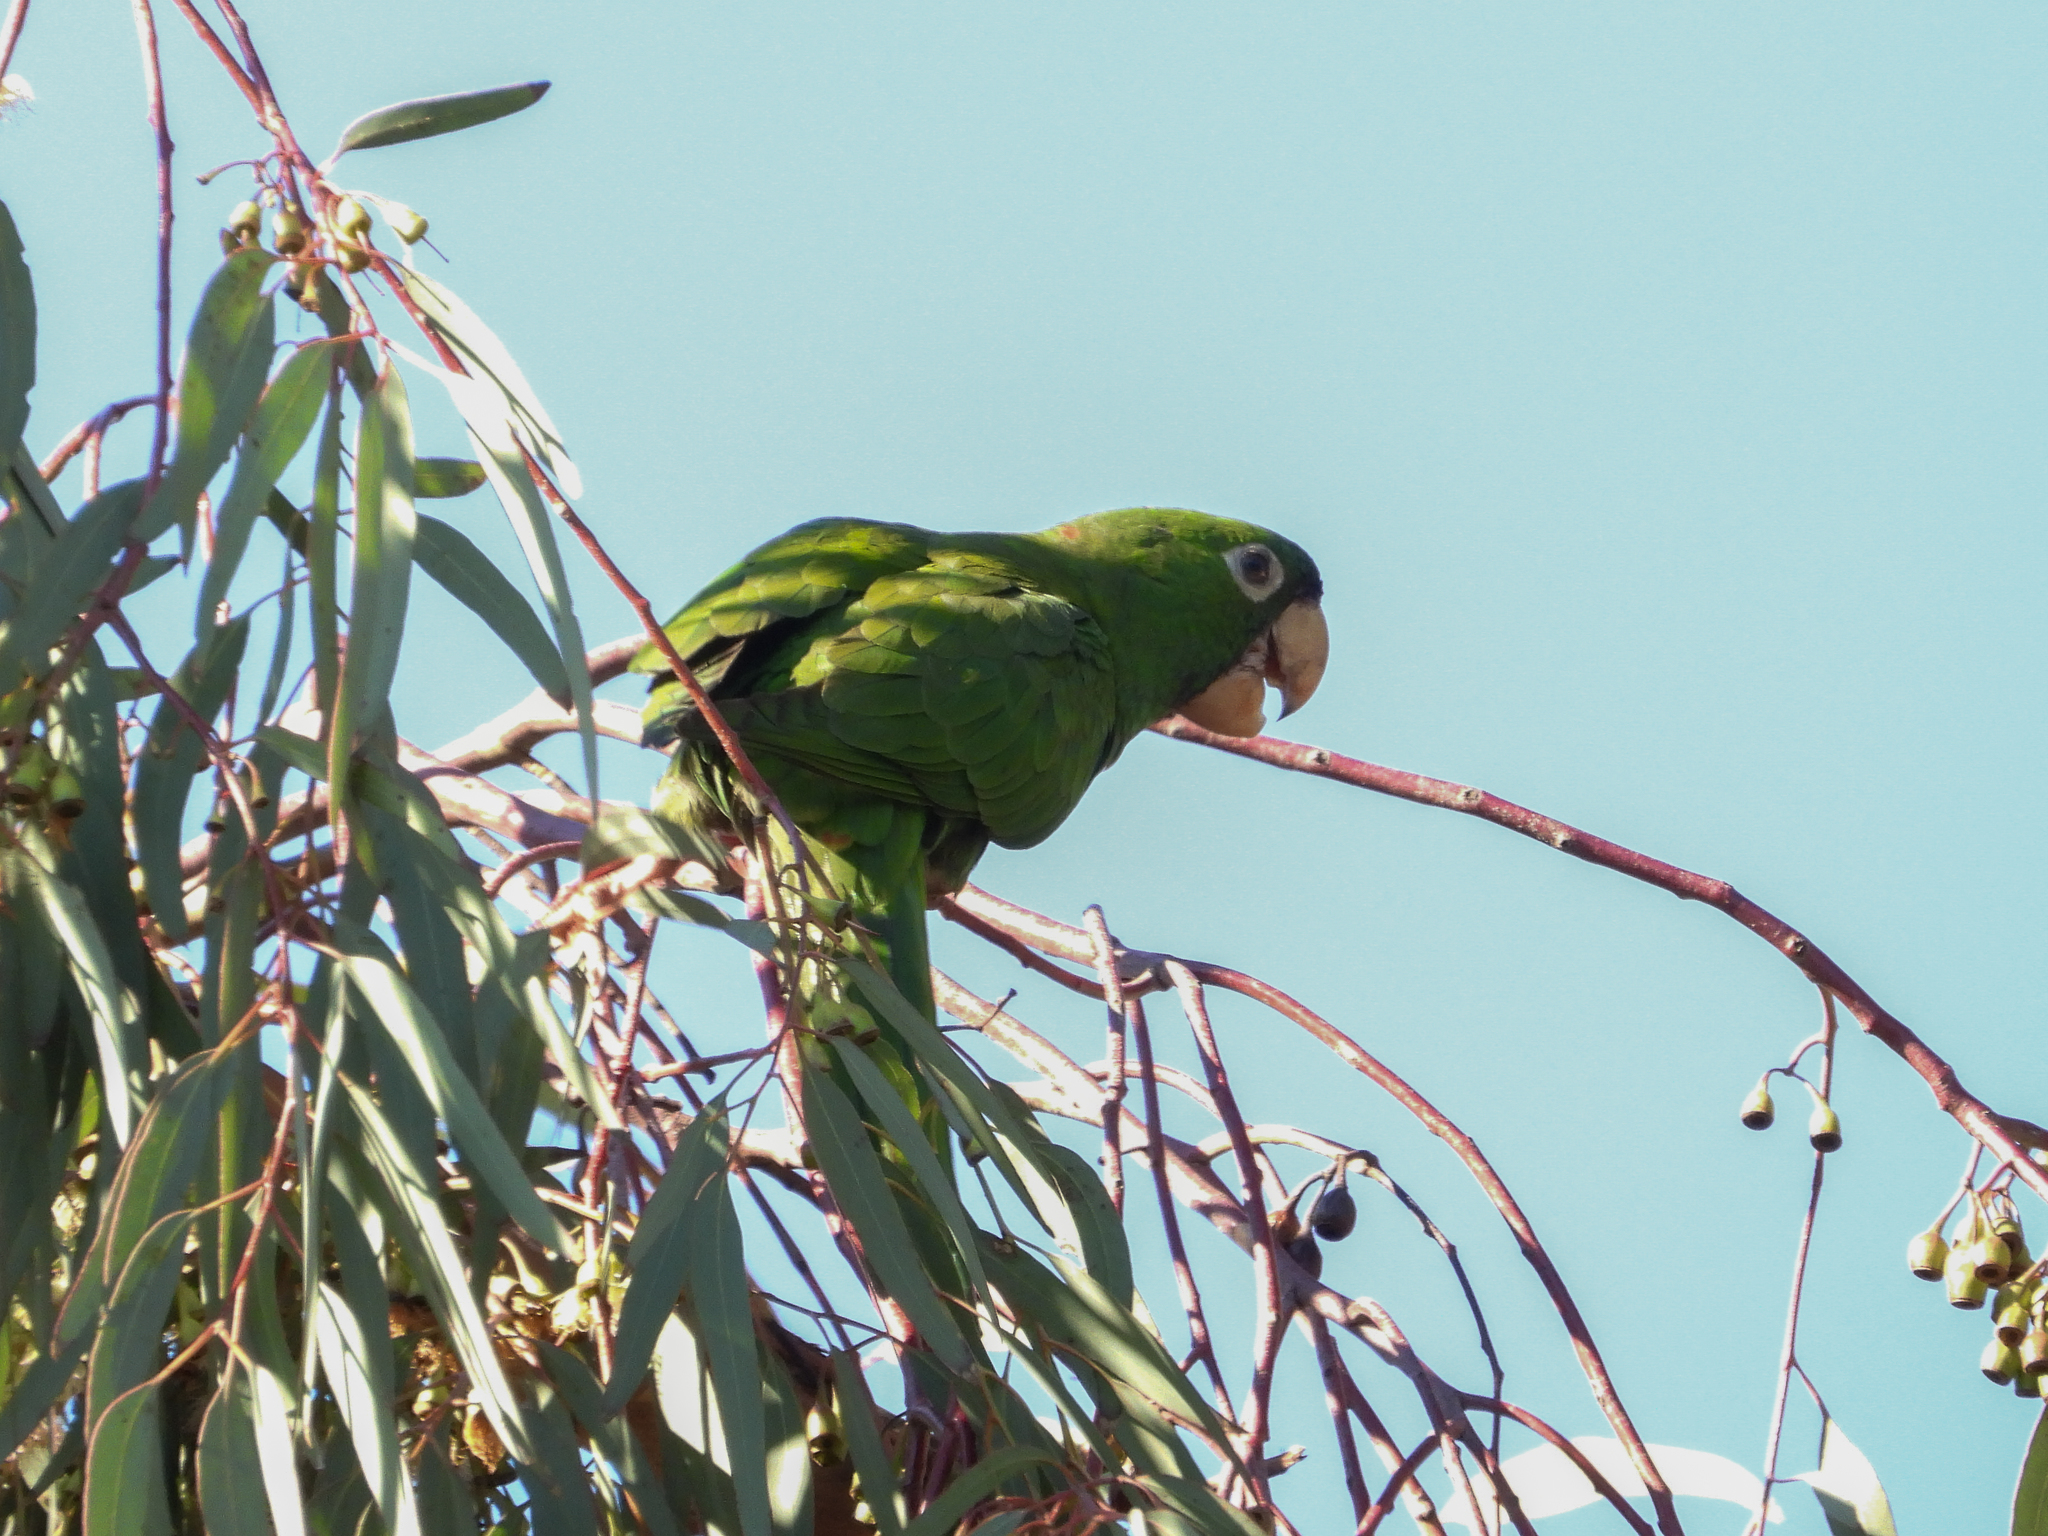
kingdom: Animalia
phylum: Chordata
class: Aves
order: Psittaciformes
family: Psittacidae
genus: Aratinga
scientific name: Aratinga mitrata
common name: Mitred parakeet
